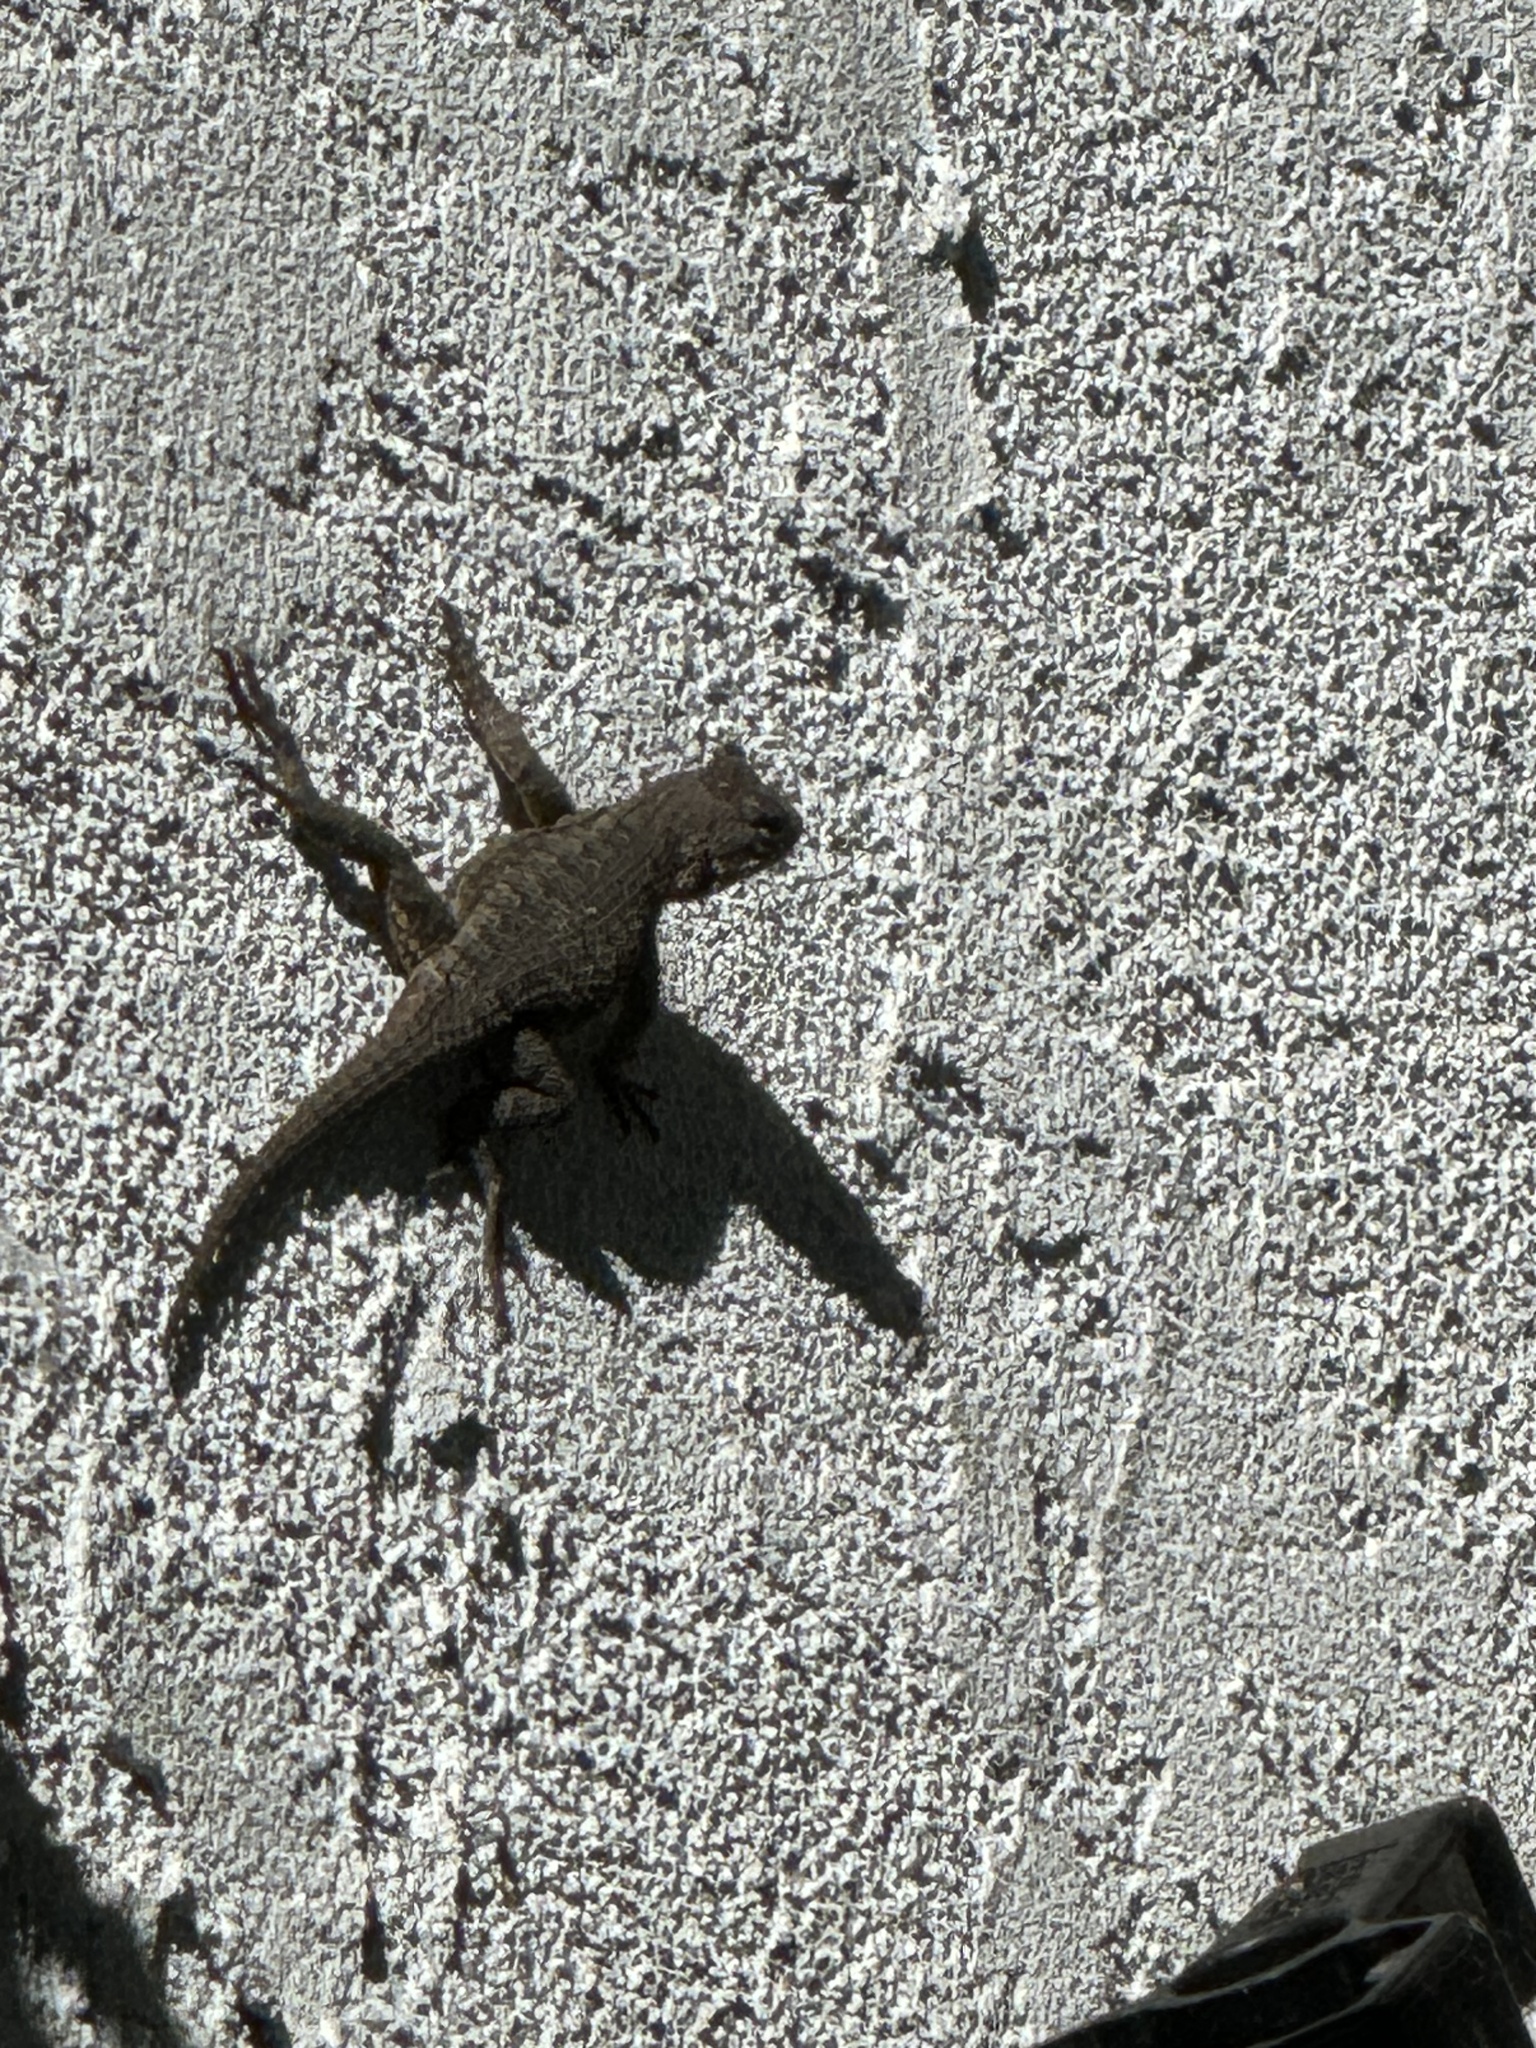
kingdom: Animalia
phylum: Chordata
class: Squamata
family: Phrynosomatidae
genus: Sceloporus
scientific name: Sceloporus occidentalis
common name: Western fence lizard
